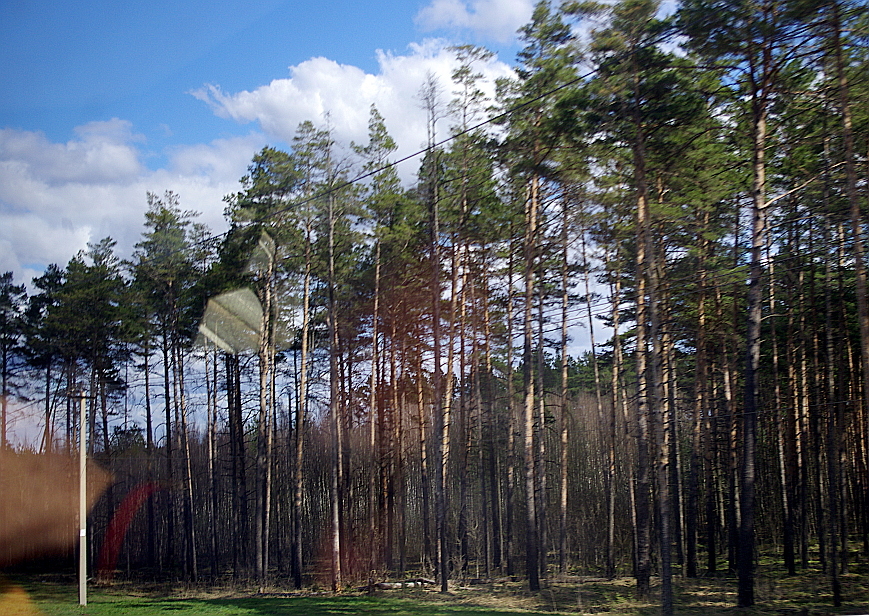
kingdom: Plantae
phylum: Tracheophyta
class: Pinopsida
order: Pinales
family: Pinaceae
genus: Pinus
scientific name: Pinus sylvestris
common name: Scots pine
